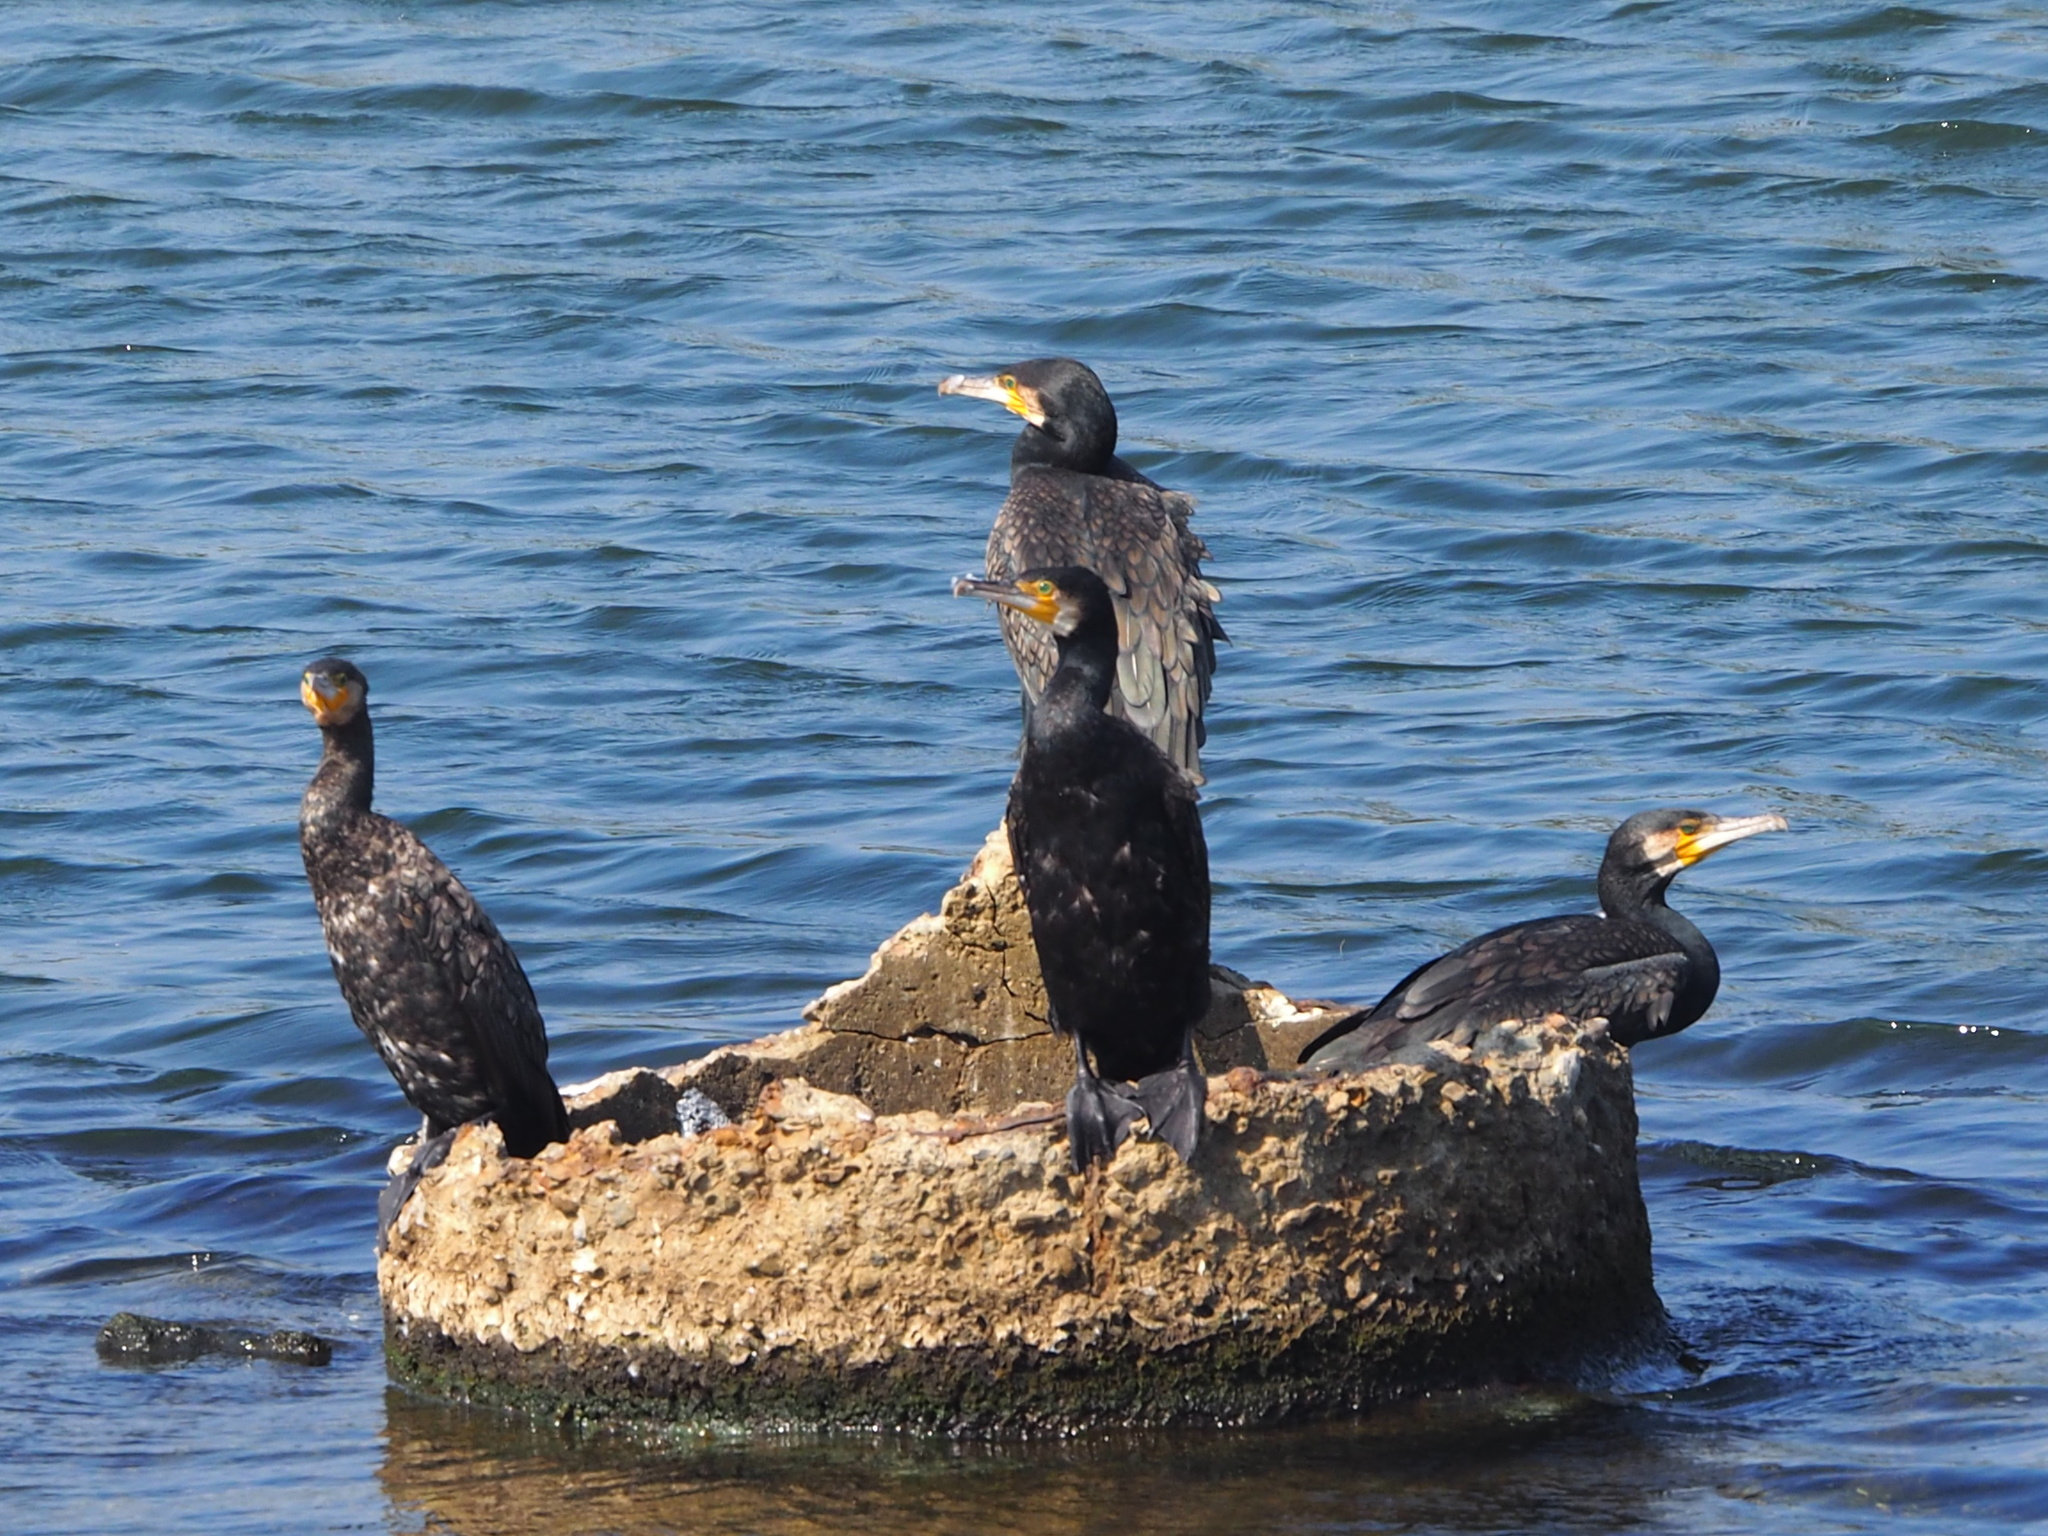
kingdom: Animalia
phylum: Chordata
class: Aves
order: Suliformes
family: Phalacrocoracidae
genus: Phalacrocorax
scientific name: Phalacrocorax carbo
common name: Great cormorant
